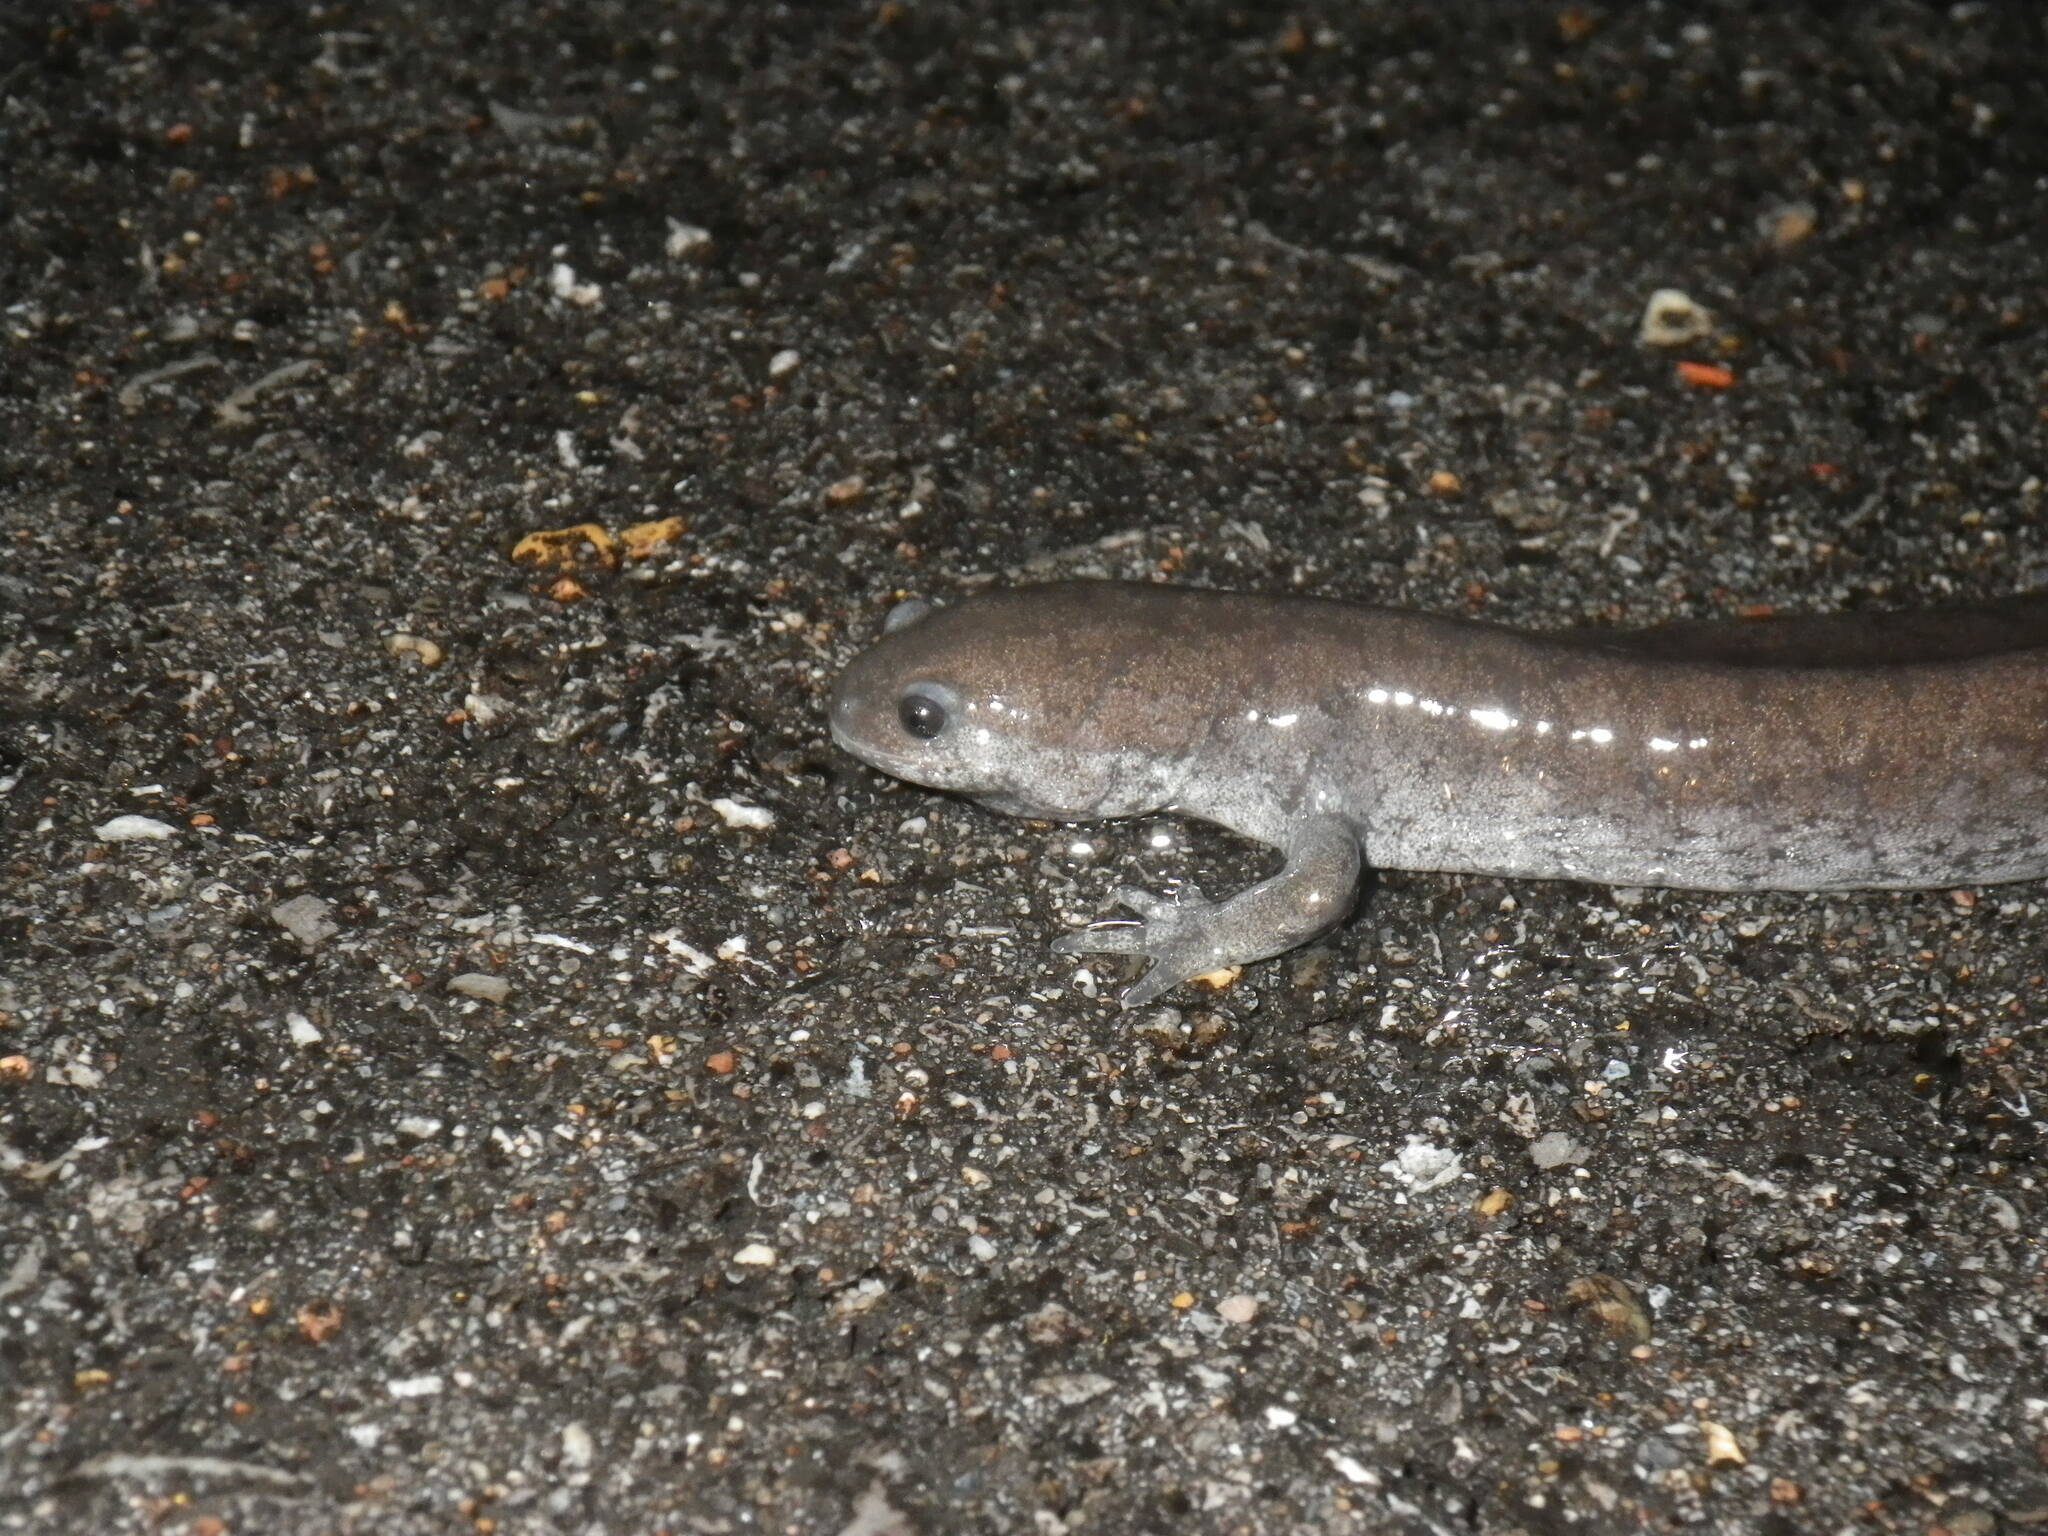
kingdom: Animalia
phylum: Chordata
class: Amphibia
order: Caudata
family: Ambystomatidae
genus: Ambystoma
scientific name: Ambystoma texanum
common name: Small-mouth salamander
